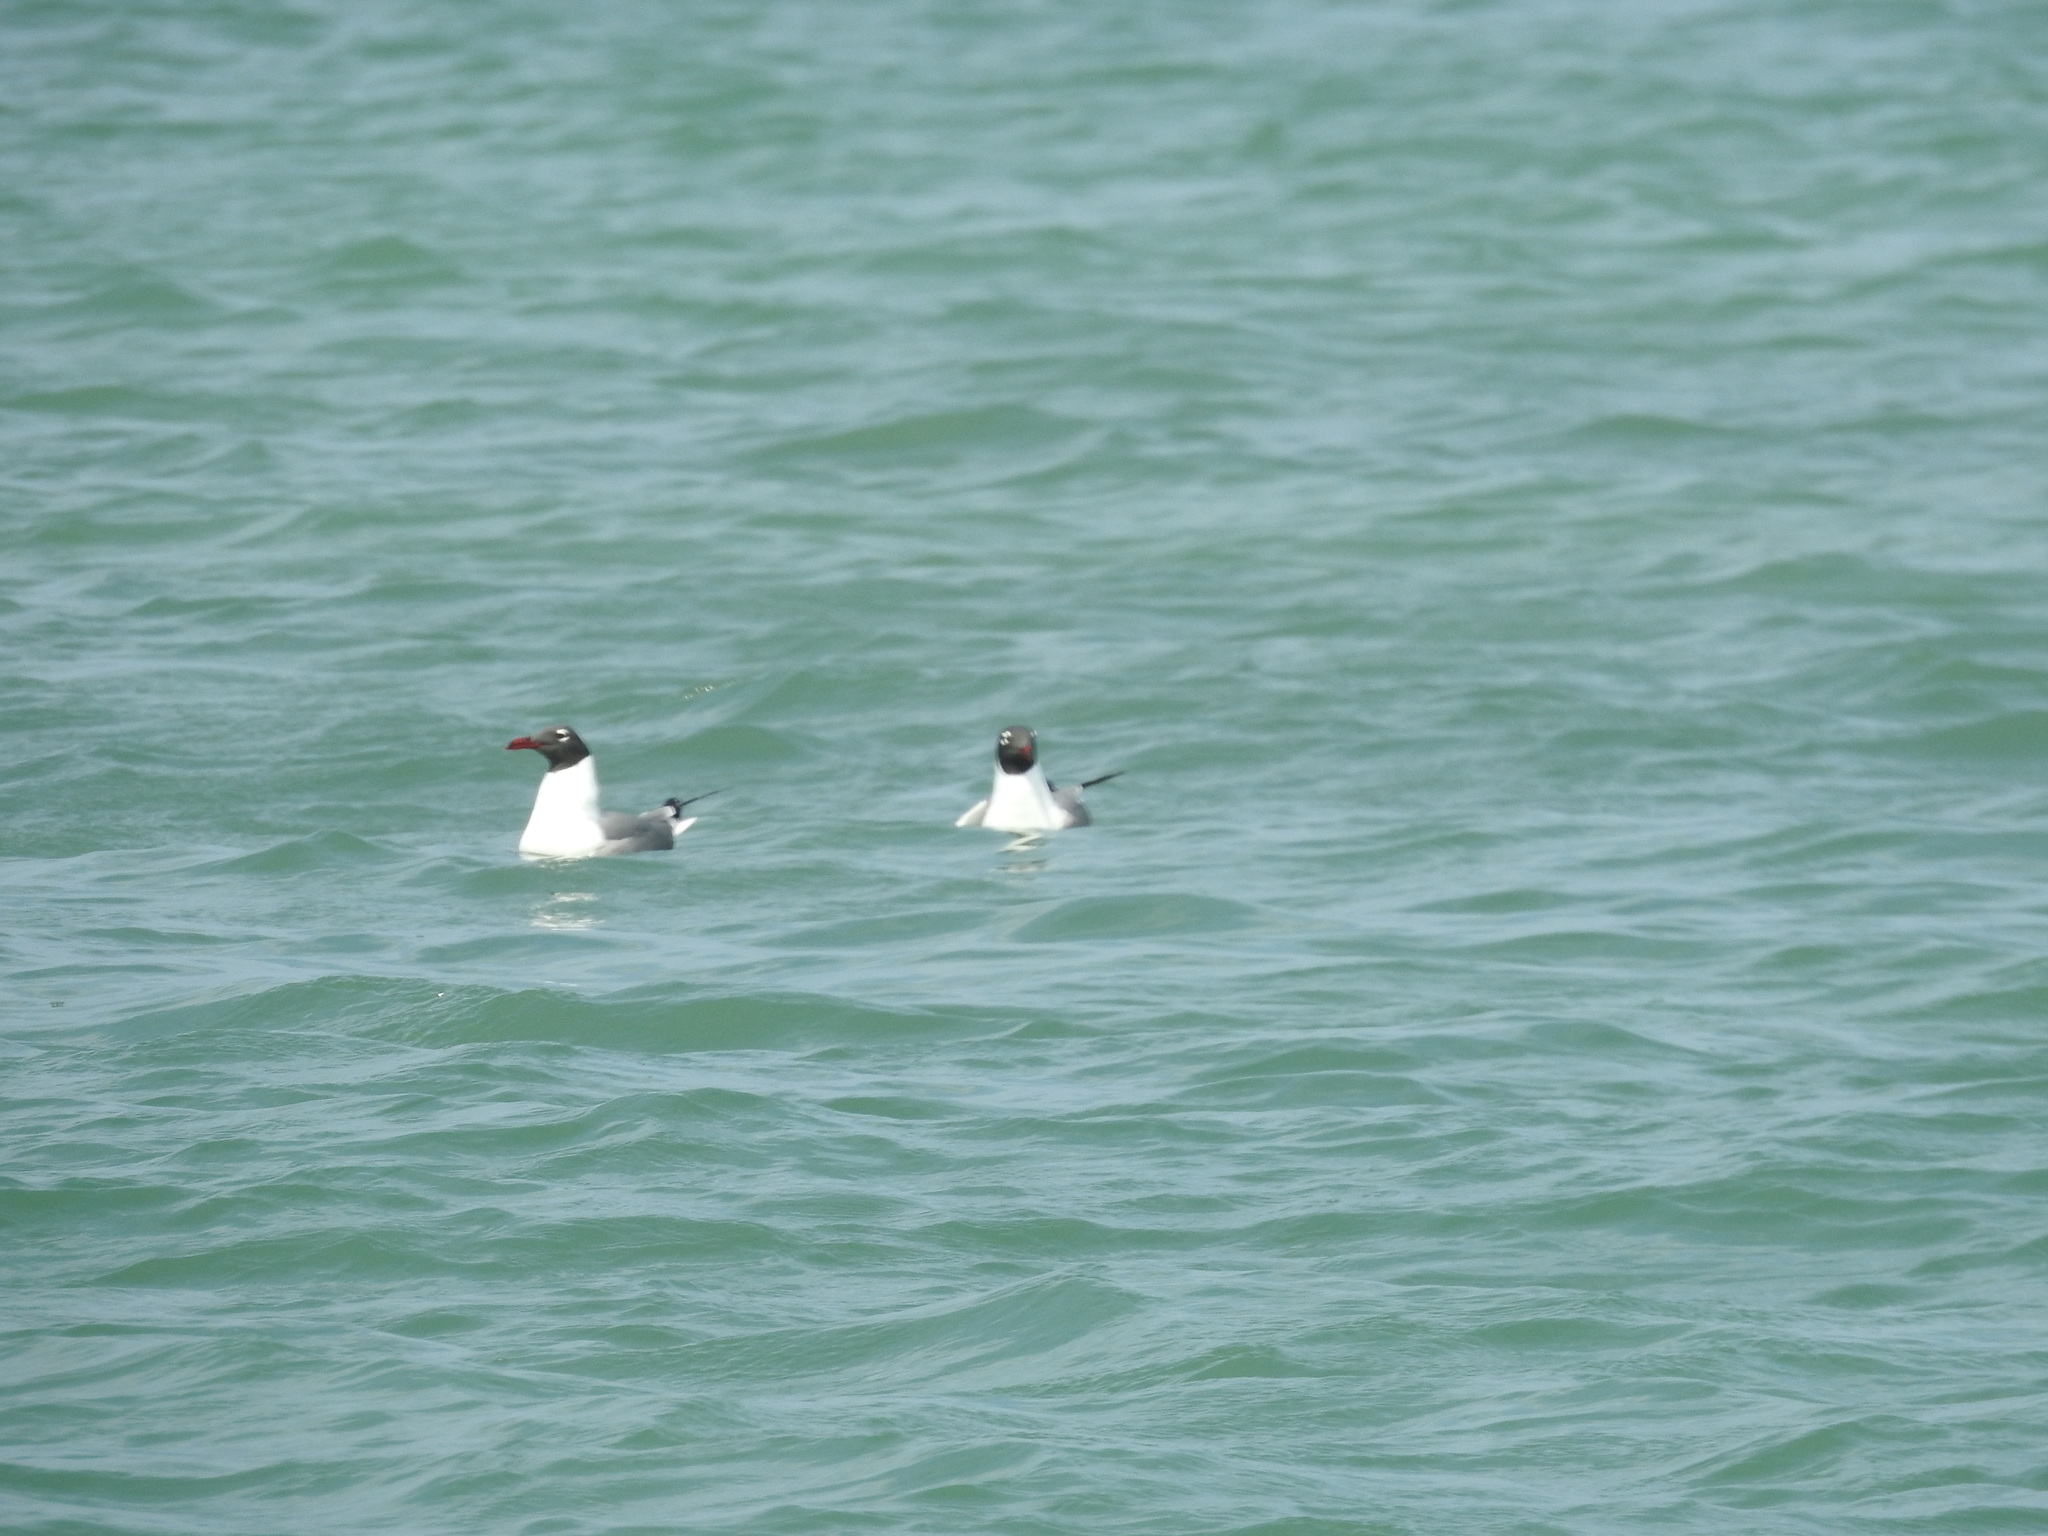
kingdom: Animalia
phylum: Chordata
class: Aves
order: Charadriiformes
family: Laridae
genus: Leucophaeus
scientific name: Leucophaeus atricilla
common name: Laughing gull
